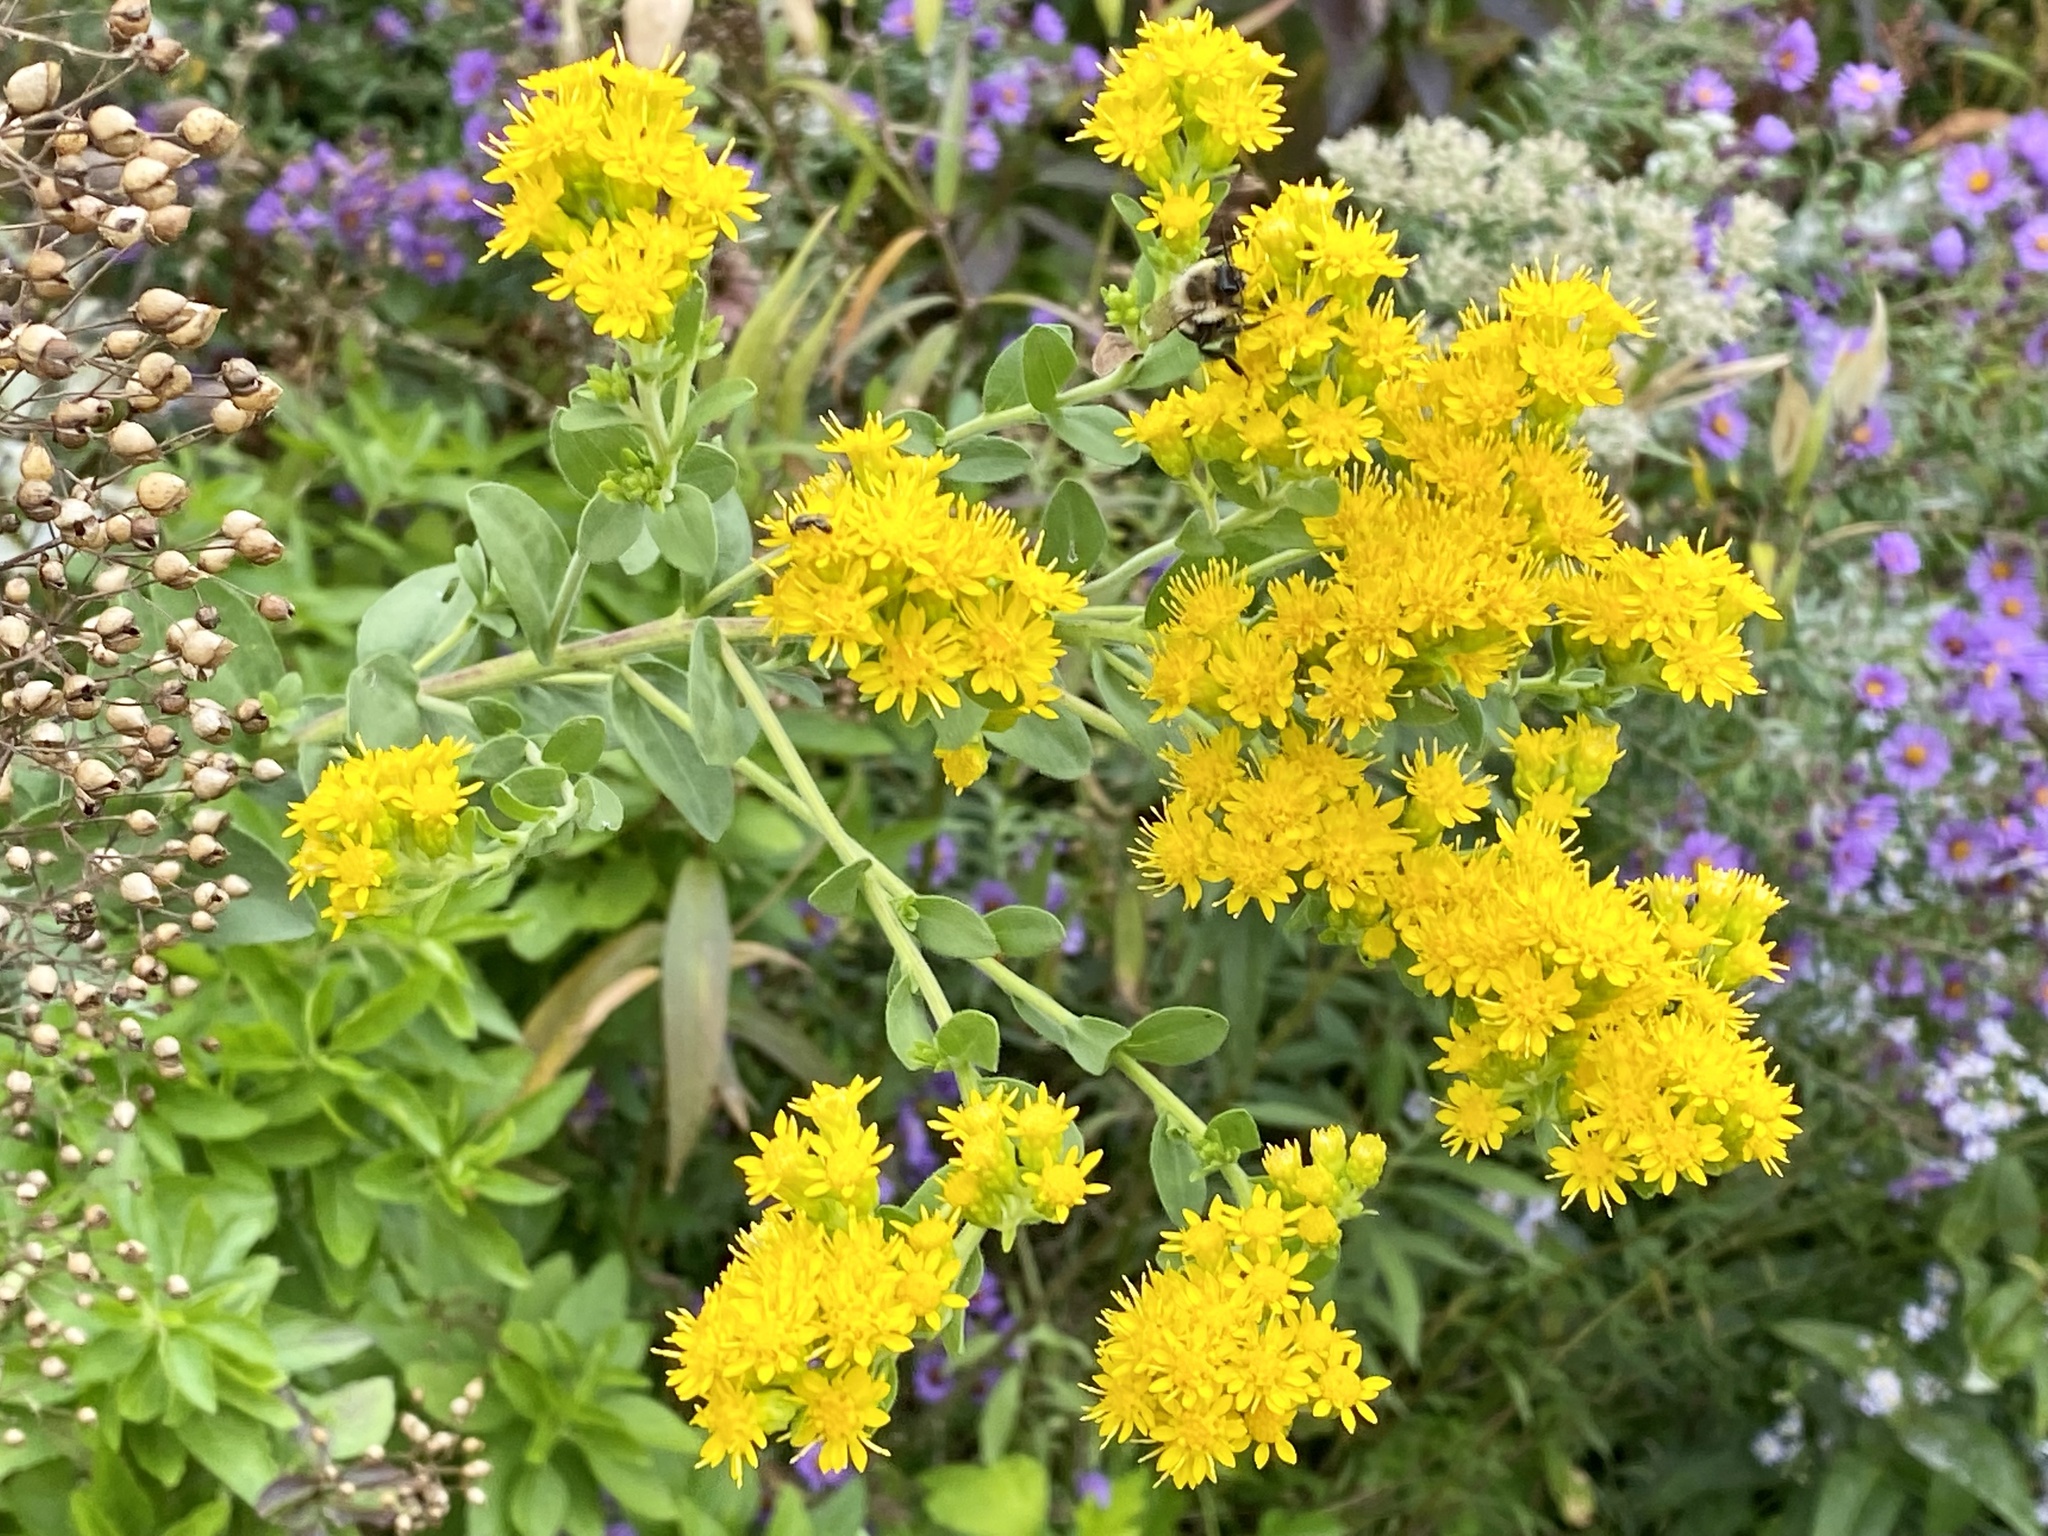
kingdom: Plantae
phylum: Tracheophyta
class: Magnoliopsida
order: Asterales
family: Asteraceae
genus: Solidago
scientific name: Solidago rigida
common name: Rigid goldenrod
